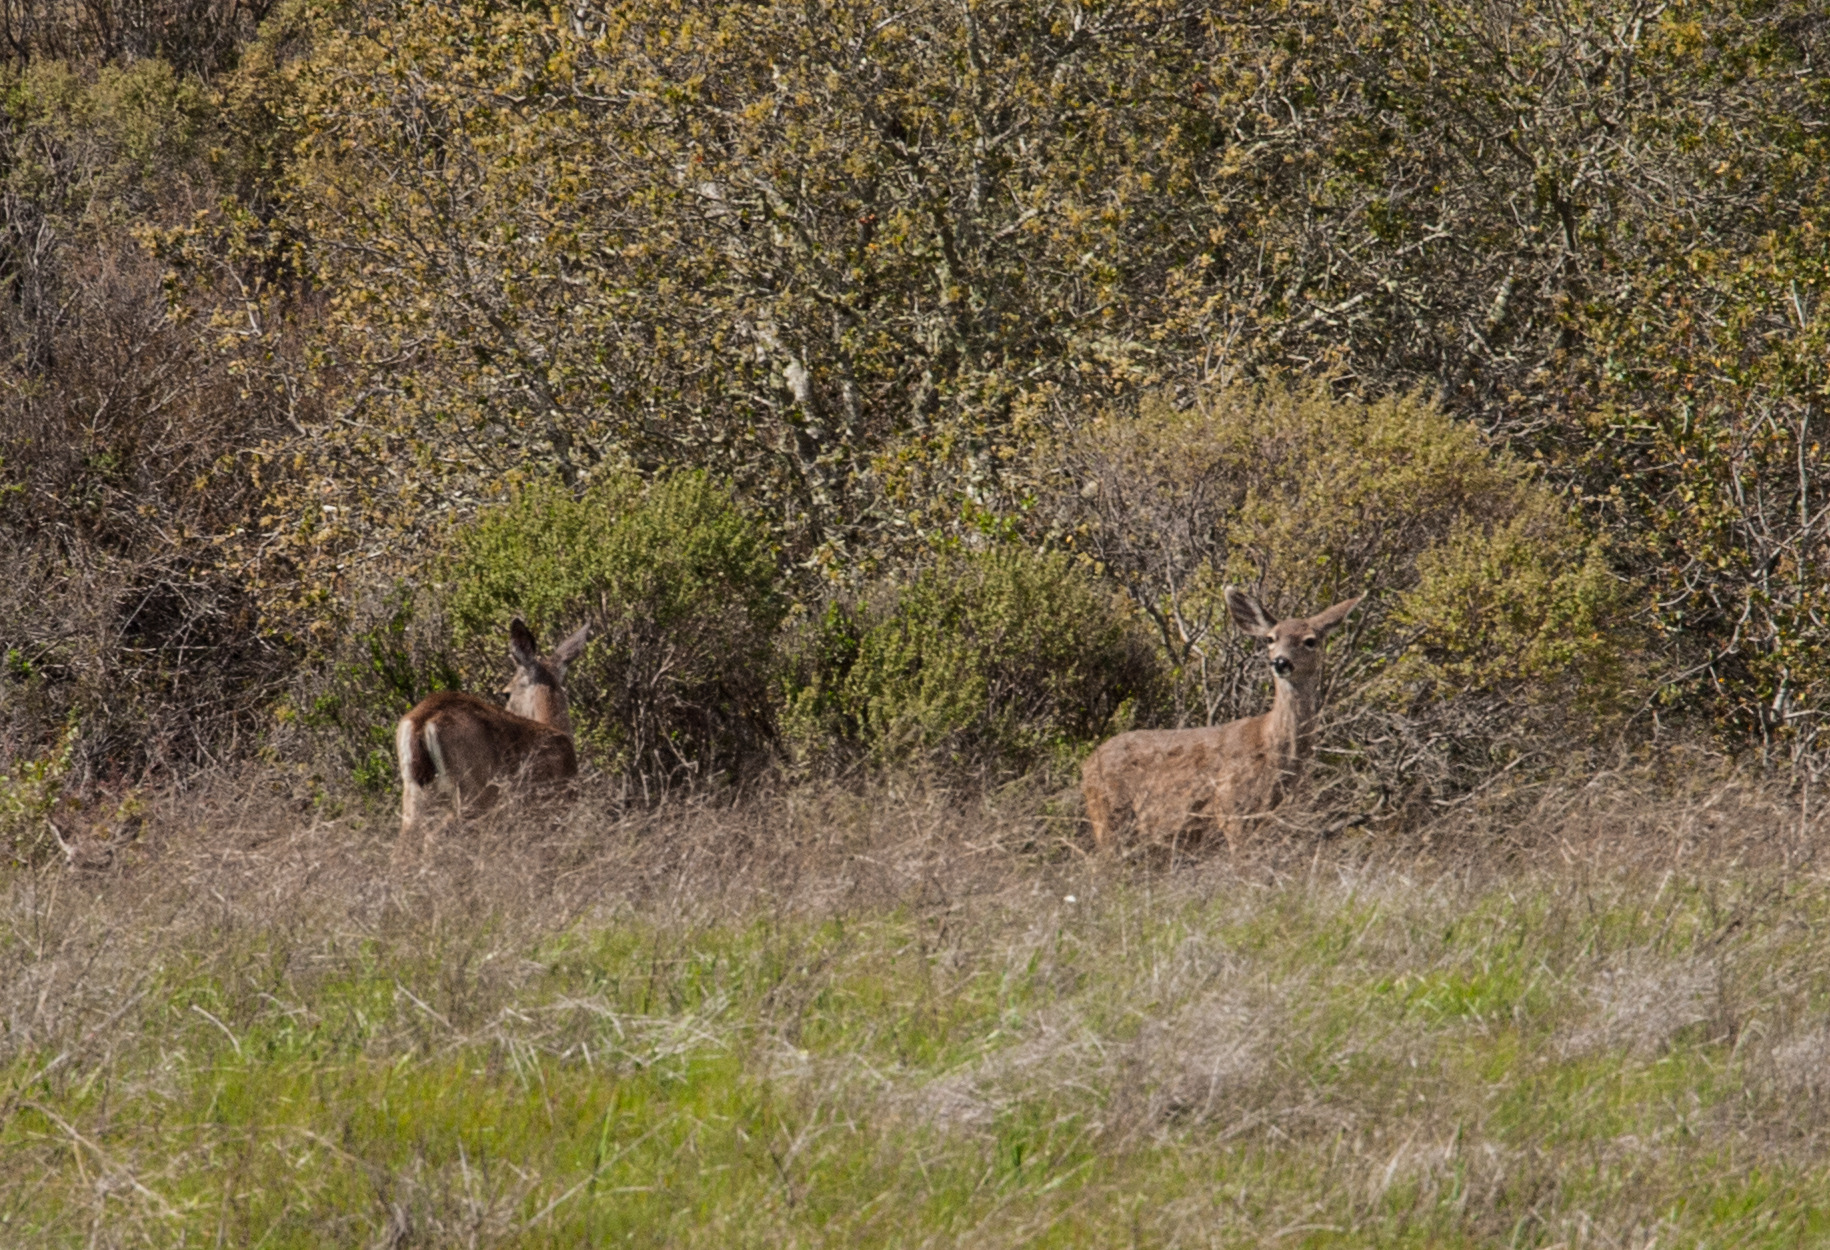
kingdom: Animalia
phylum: Chordata
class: Mammalia
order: Artiodactyla
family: Cervidae
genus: Odocoileus
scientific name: Odocoileus hemionus
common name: Mule deer
